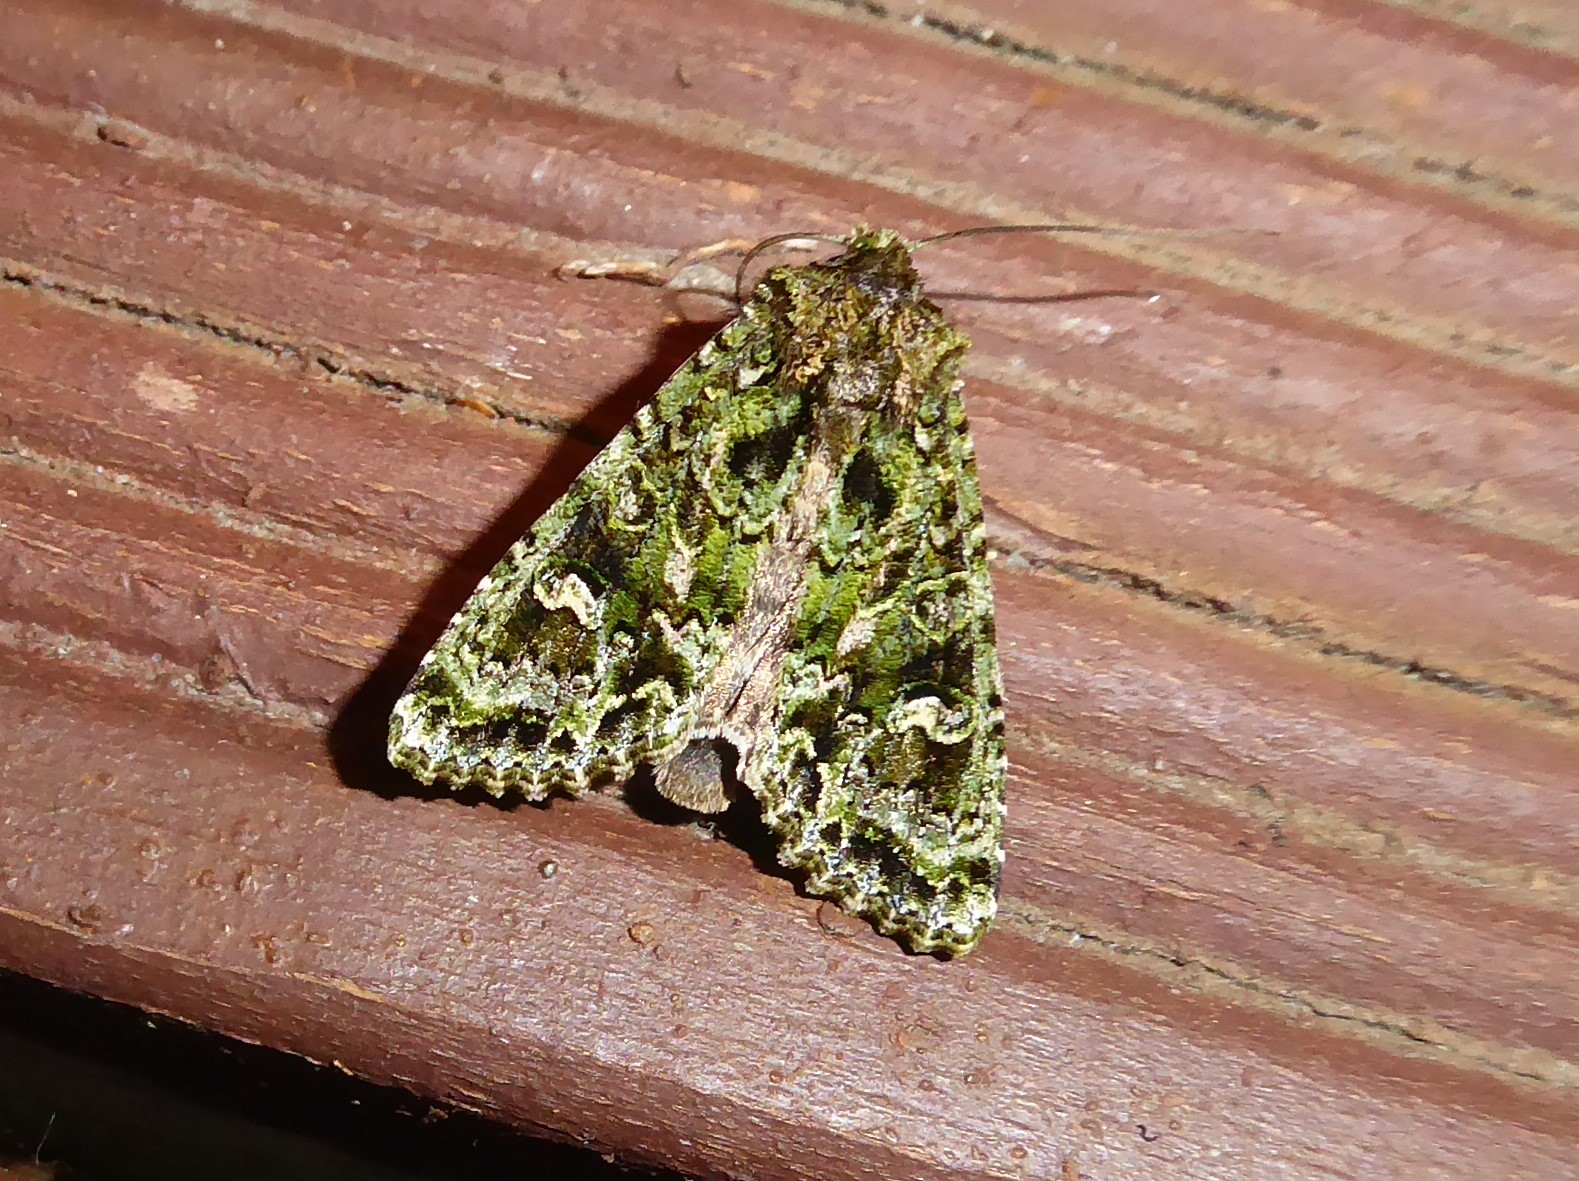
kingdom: Animalia
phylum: Arthropoda
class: Insecta
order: Lepidoptera
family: Noctuidae
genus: Ichneutica
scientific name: Ichneutica
